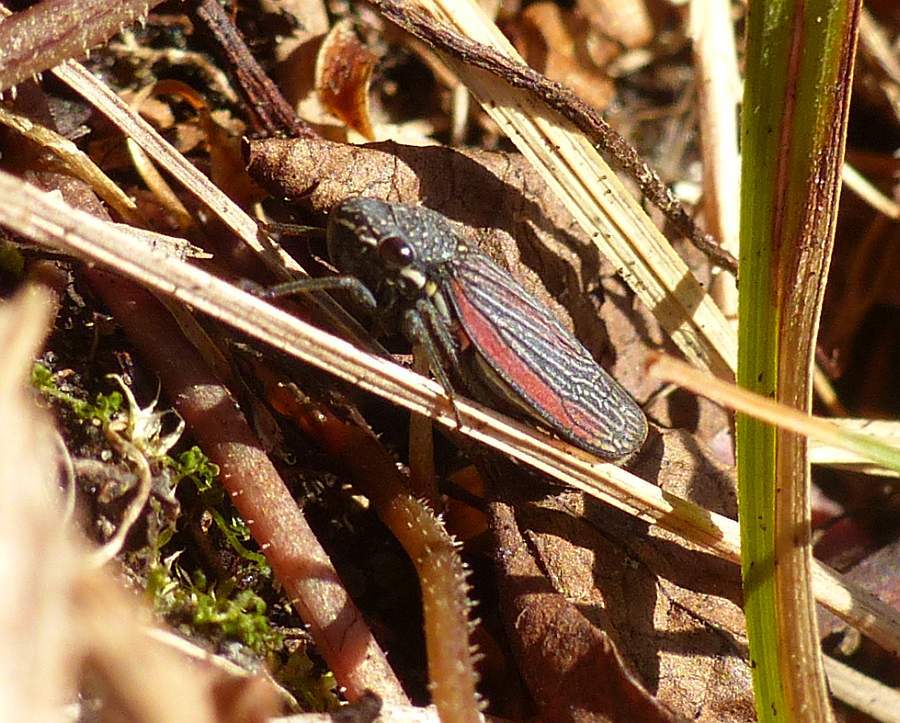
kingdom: Animalia
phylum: Arthropoda
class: Insecta
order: Hemiptera
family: Cicadellidae
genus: Cuerna
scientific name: Cuerna striata
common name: Striped leafhopper
